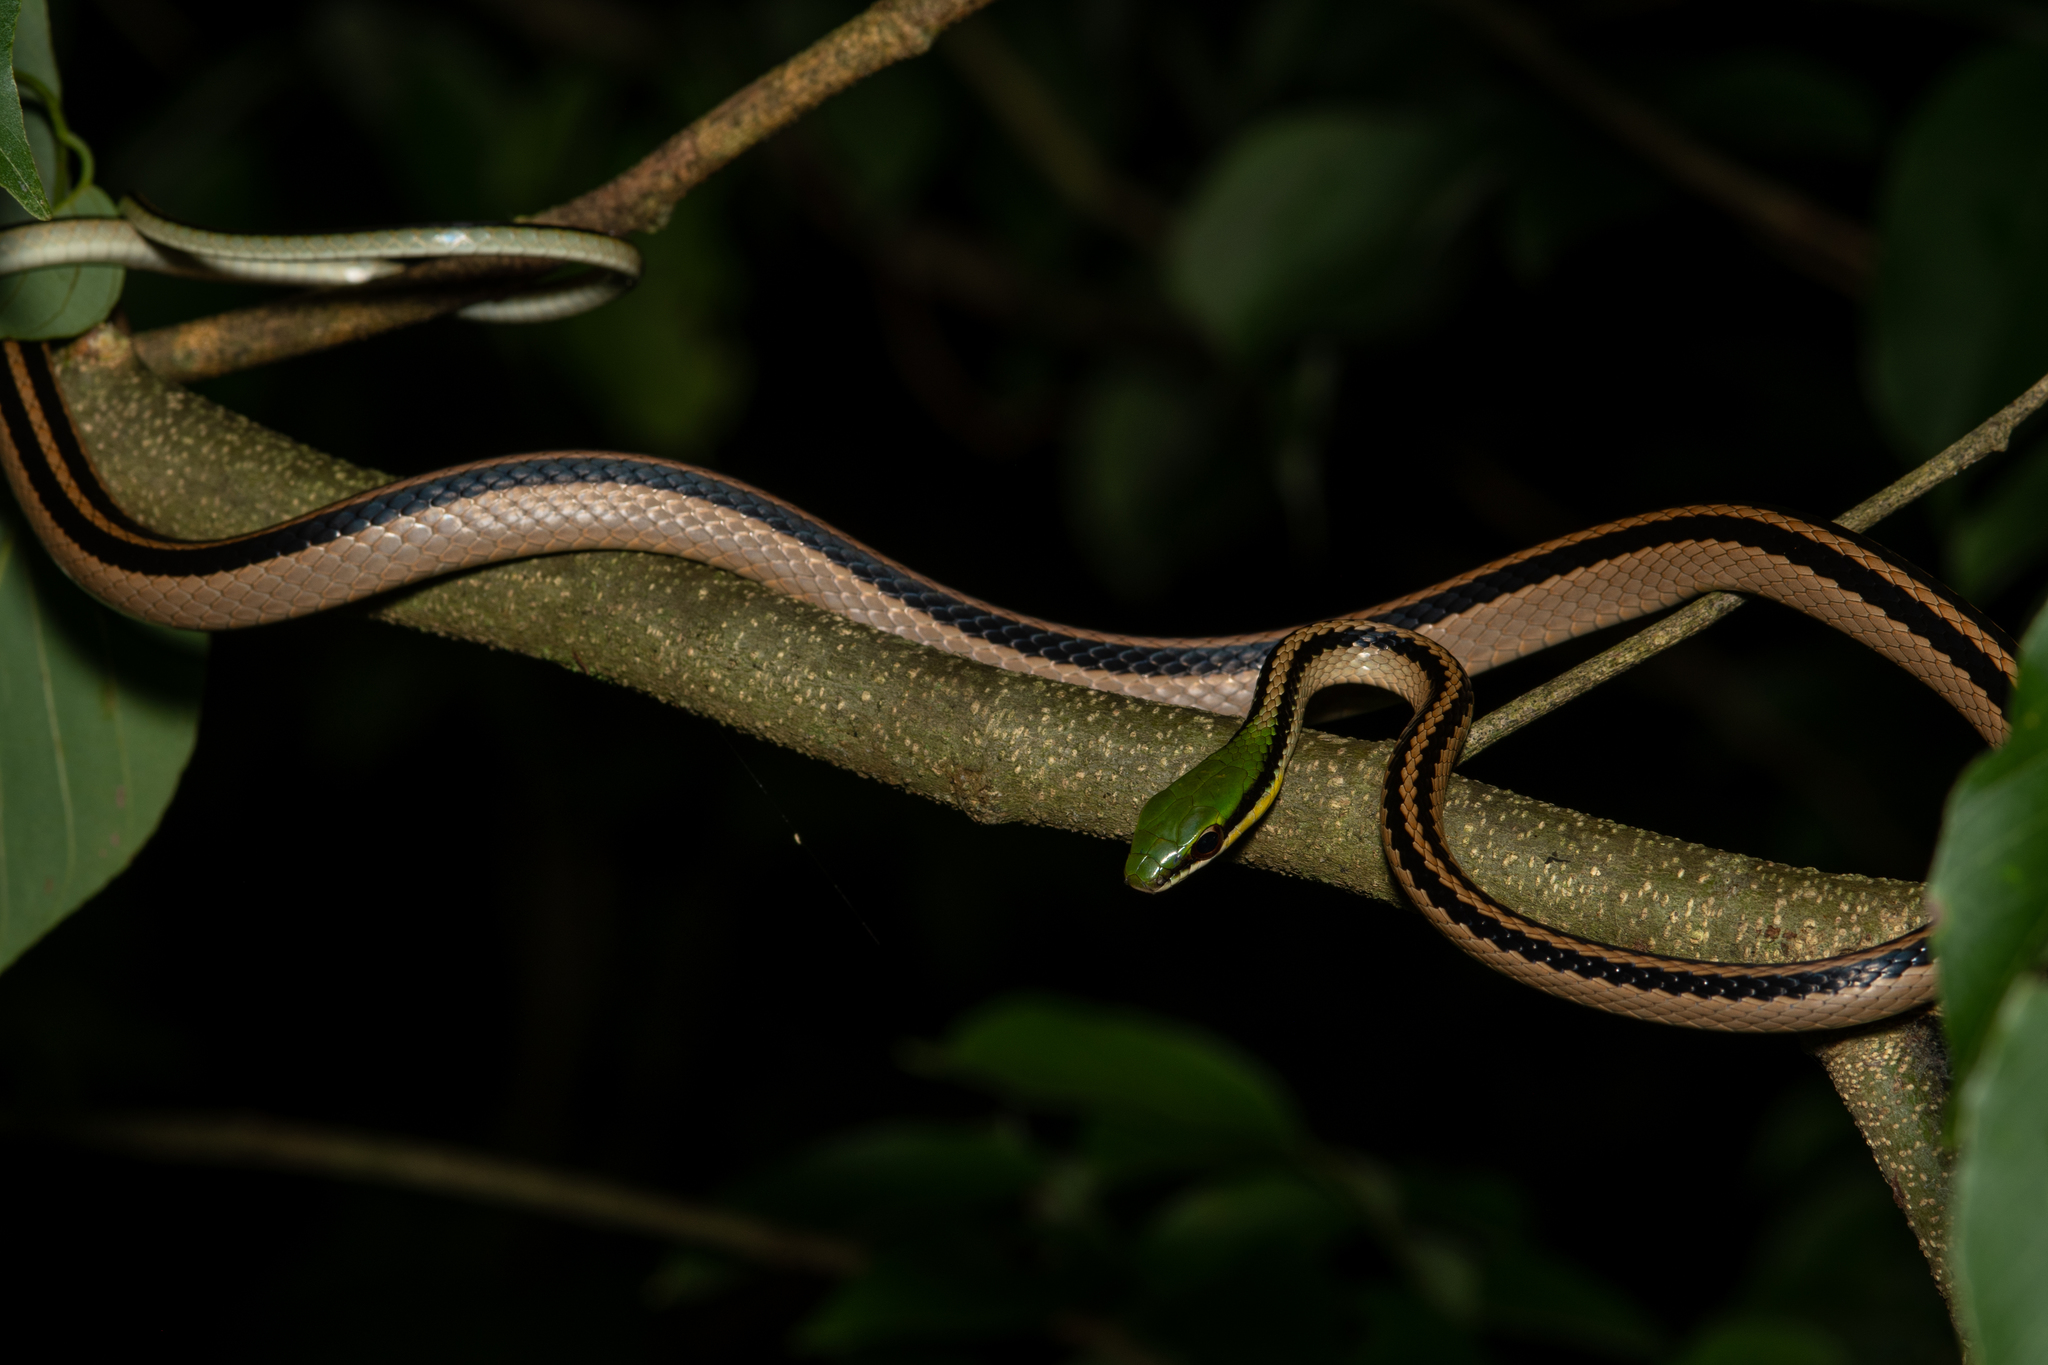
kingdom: Animalia
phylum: Chordata
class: Squamata
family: Colubridae
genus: Leptodrymus
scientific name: Leptodrymus pulcherrimus
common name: Striped lowland snake
